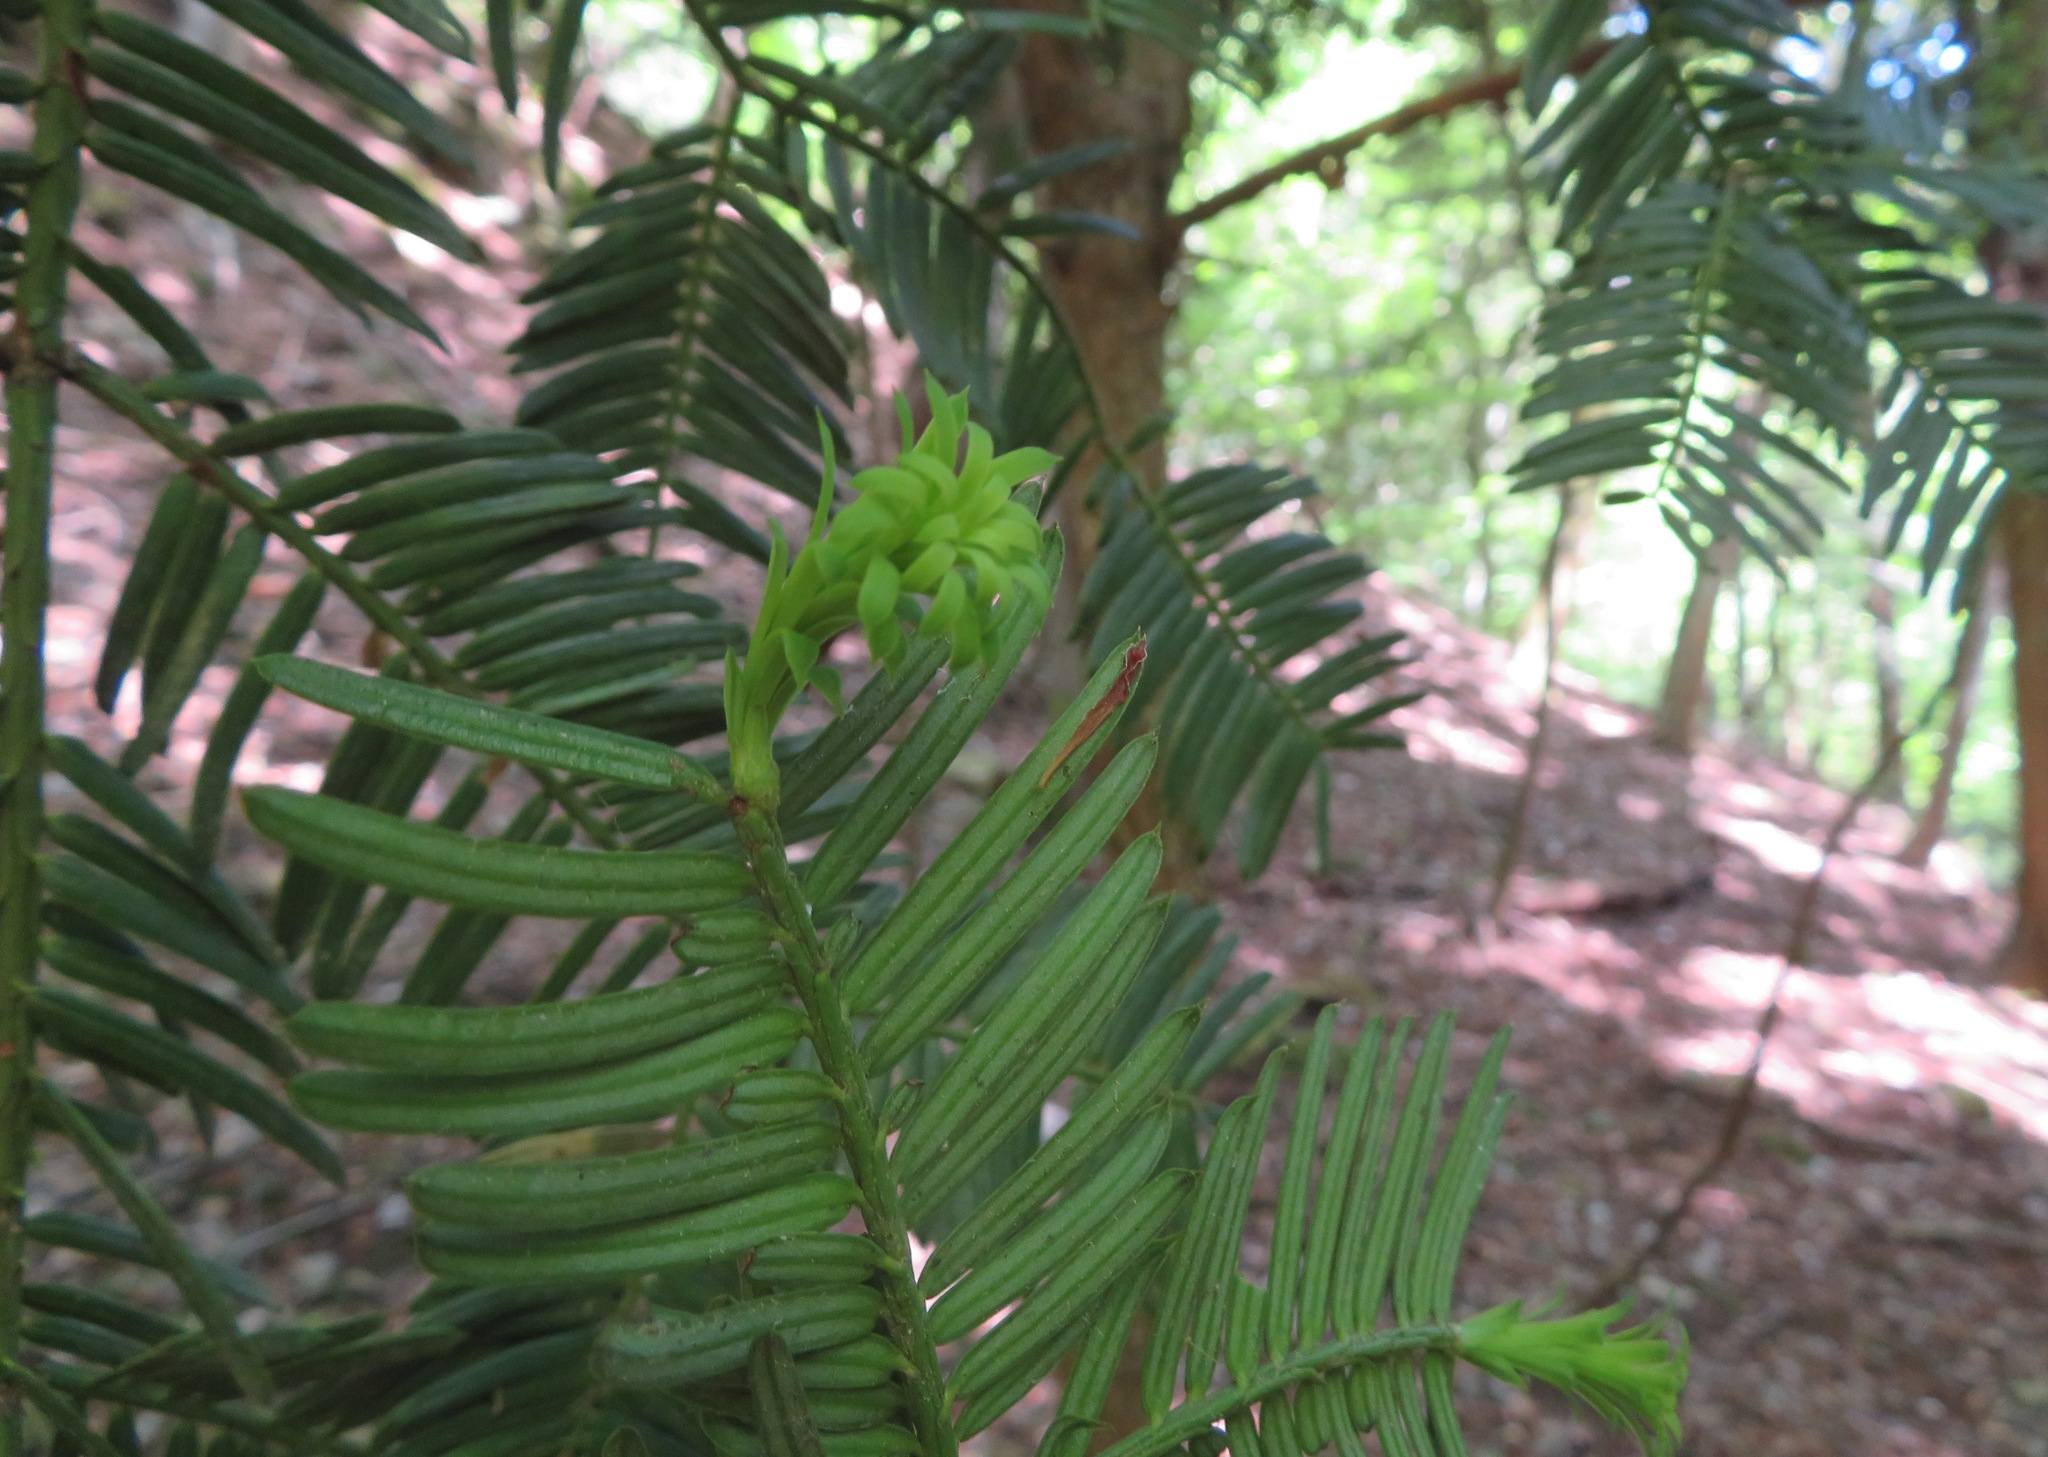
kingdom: Plantae
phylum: Tracheophyta
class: Pinopsida
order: Pinales
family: Cephalotaxaceae
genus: Cephalotaxus
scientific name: Cephalotaxus harringtonia
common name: Japanese plum-yew
